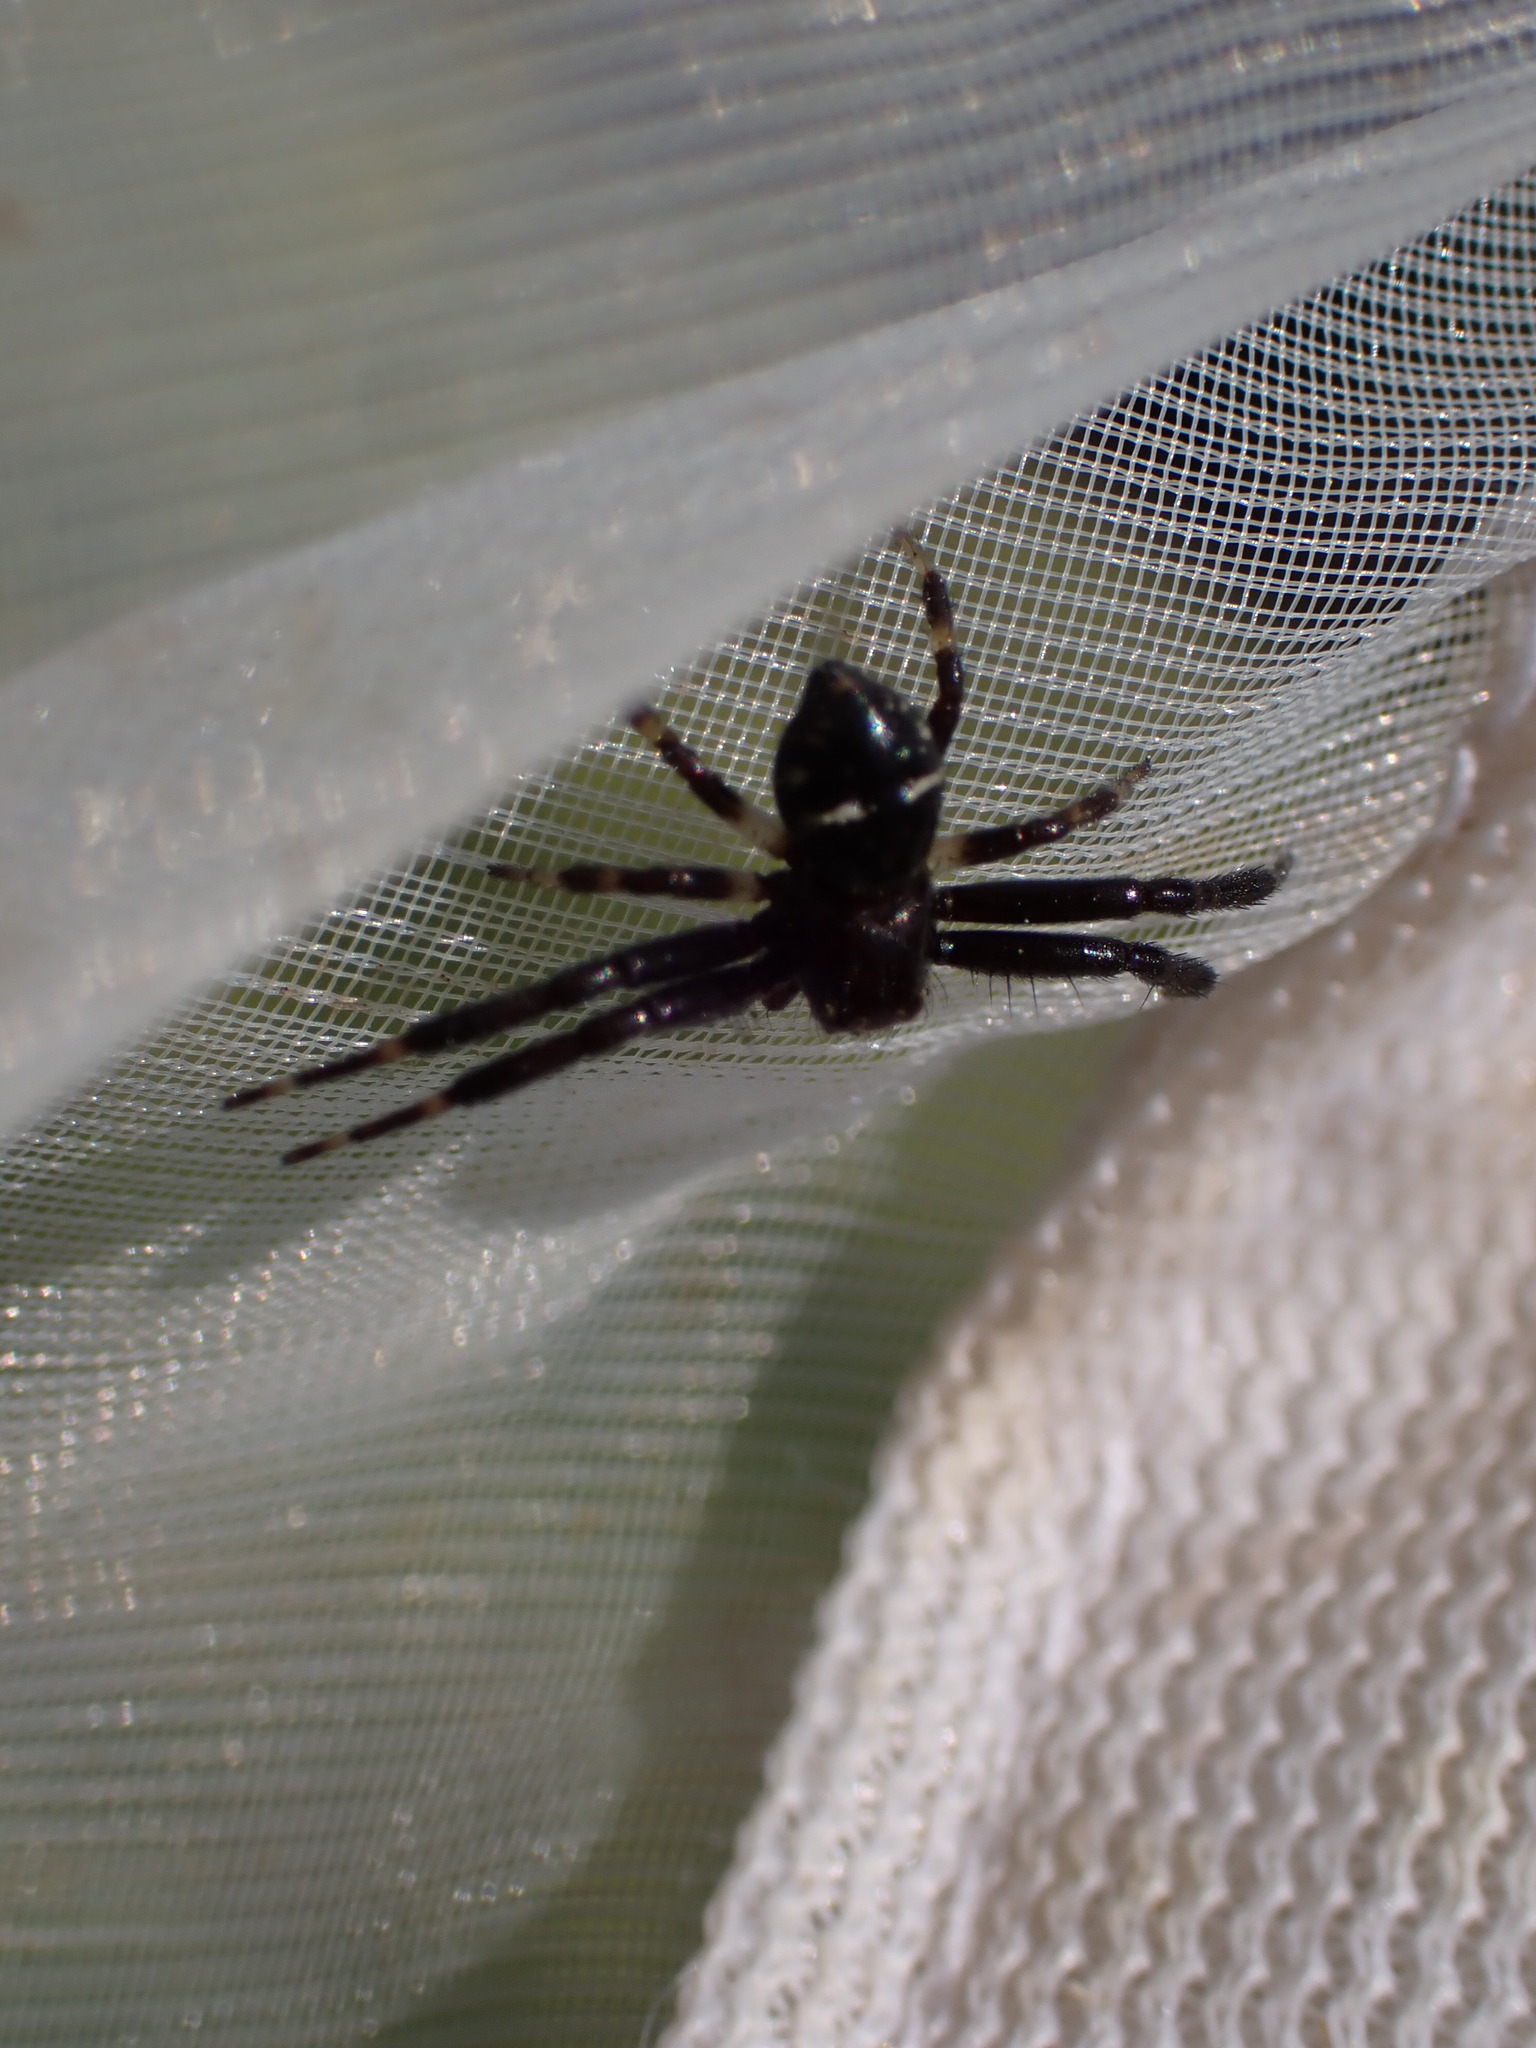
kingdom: Animalia
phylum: Arthropoda
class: Arachnida
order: Araneae
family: Thomisidae
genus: Synema
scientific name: Synema globosum
